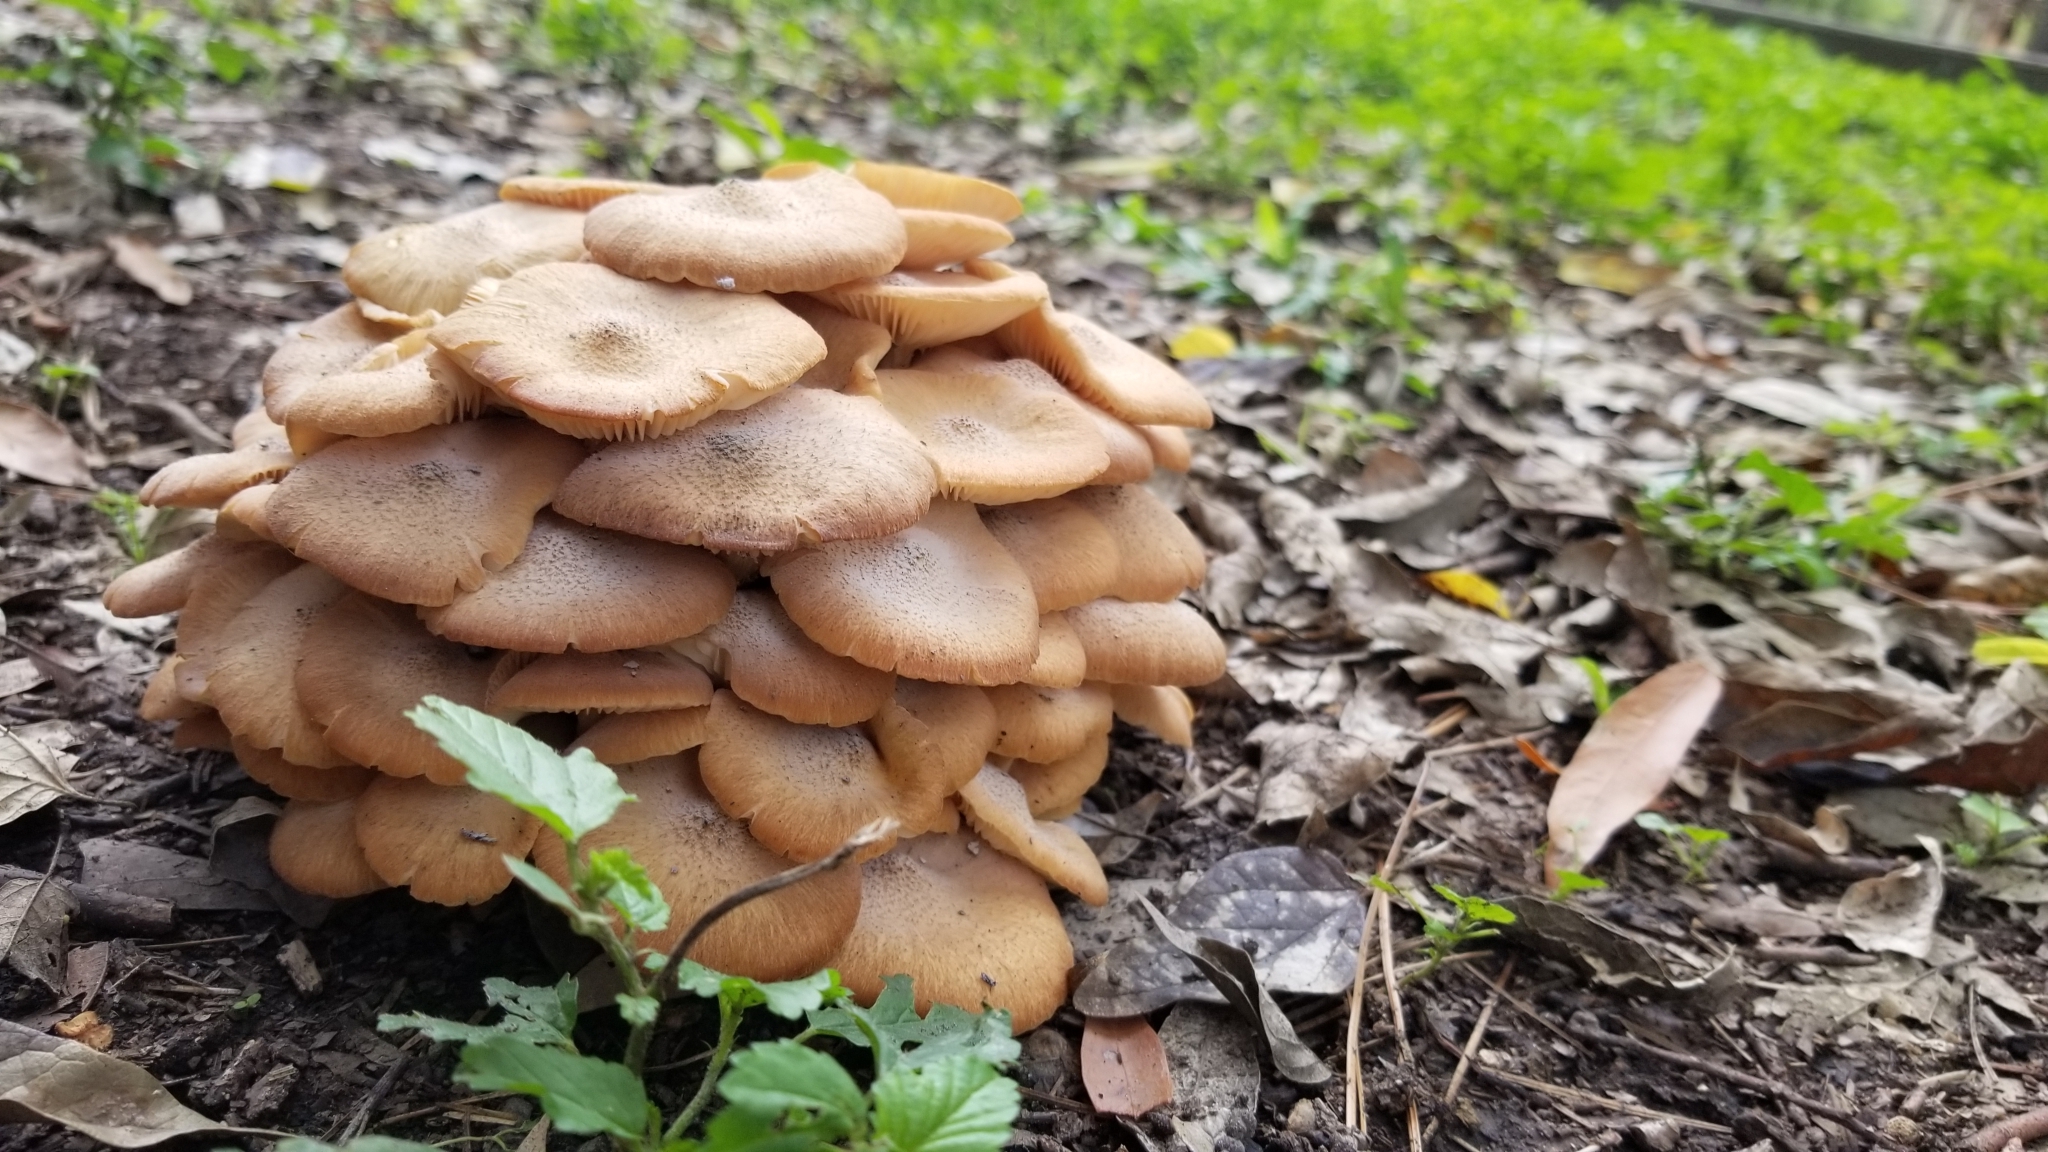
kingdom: Fungi
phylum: Basidiomycota
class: Agaricomycetes
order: Agaricales
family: Physalacriaceae
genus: Desarmillaria
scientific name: Desarmillaria caespitosa
